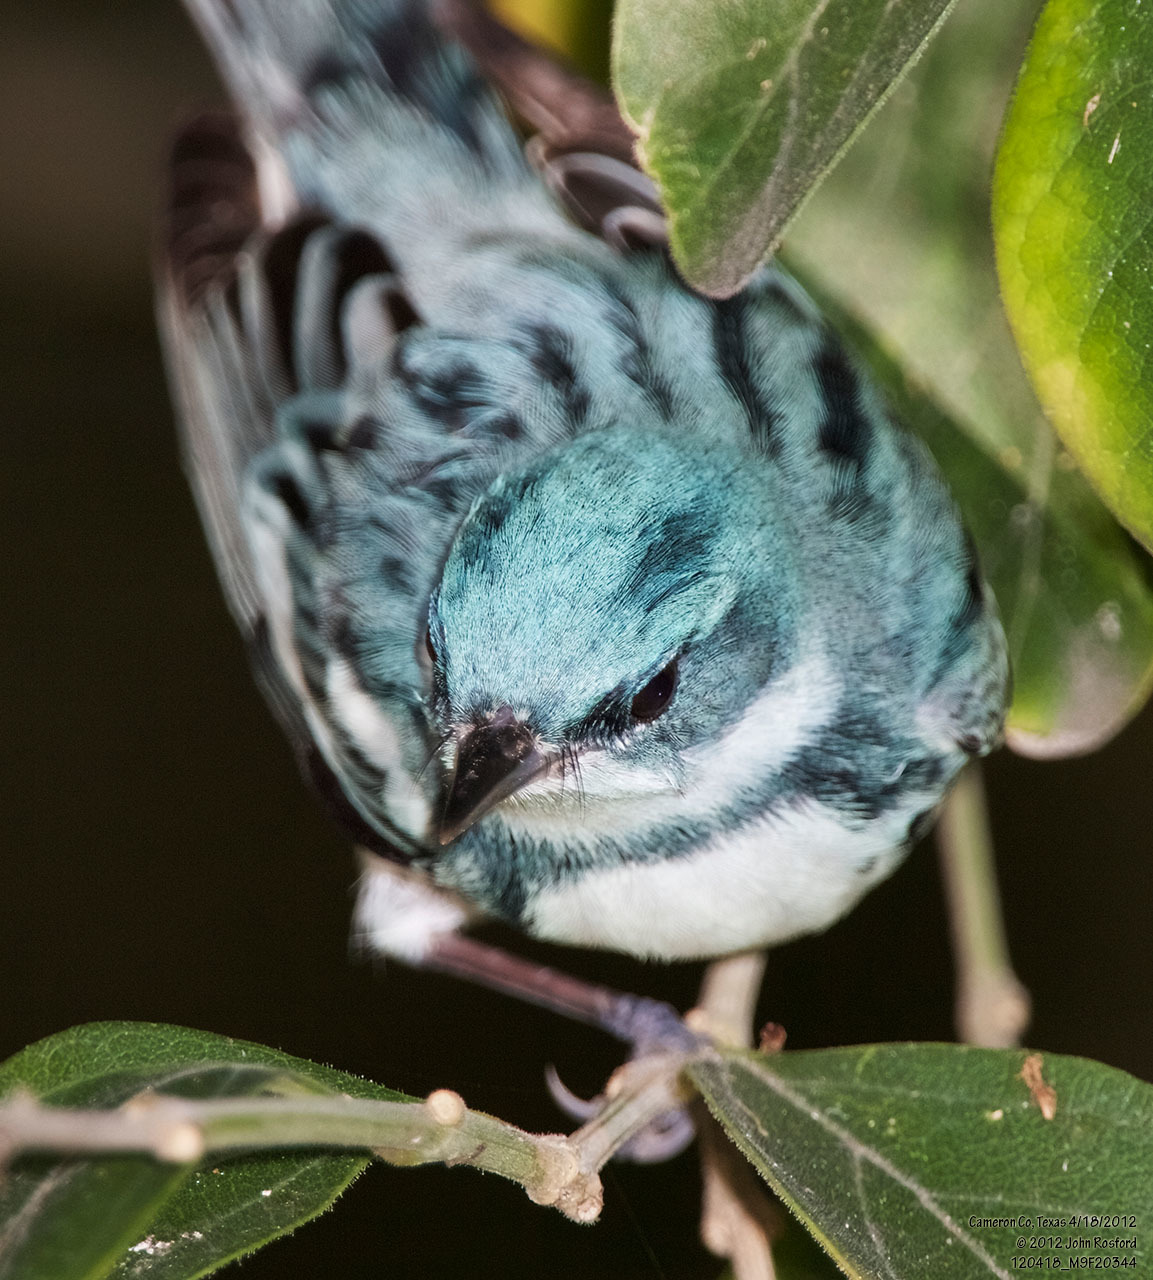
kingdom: Animalia
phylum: Chordata
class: Aves
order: Passeriformes
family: Parulidae
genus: Setophaga
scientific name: Setophaga cerulea
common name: Cerulean warbler
